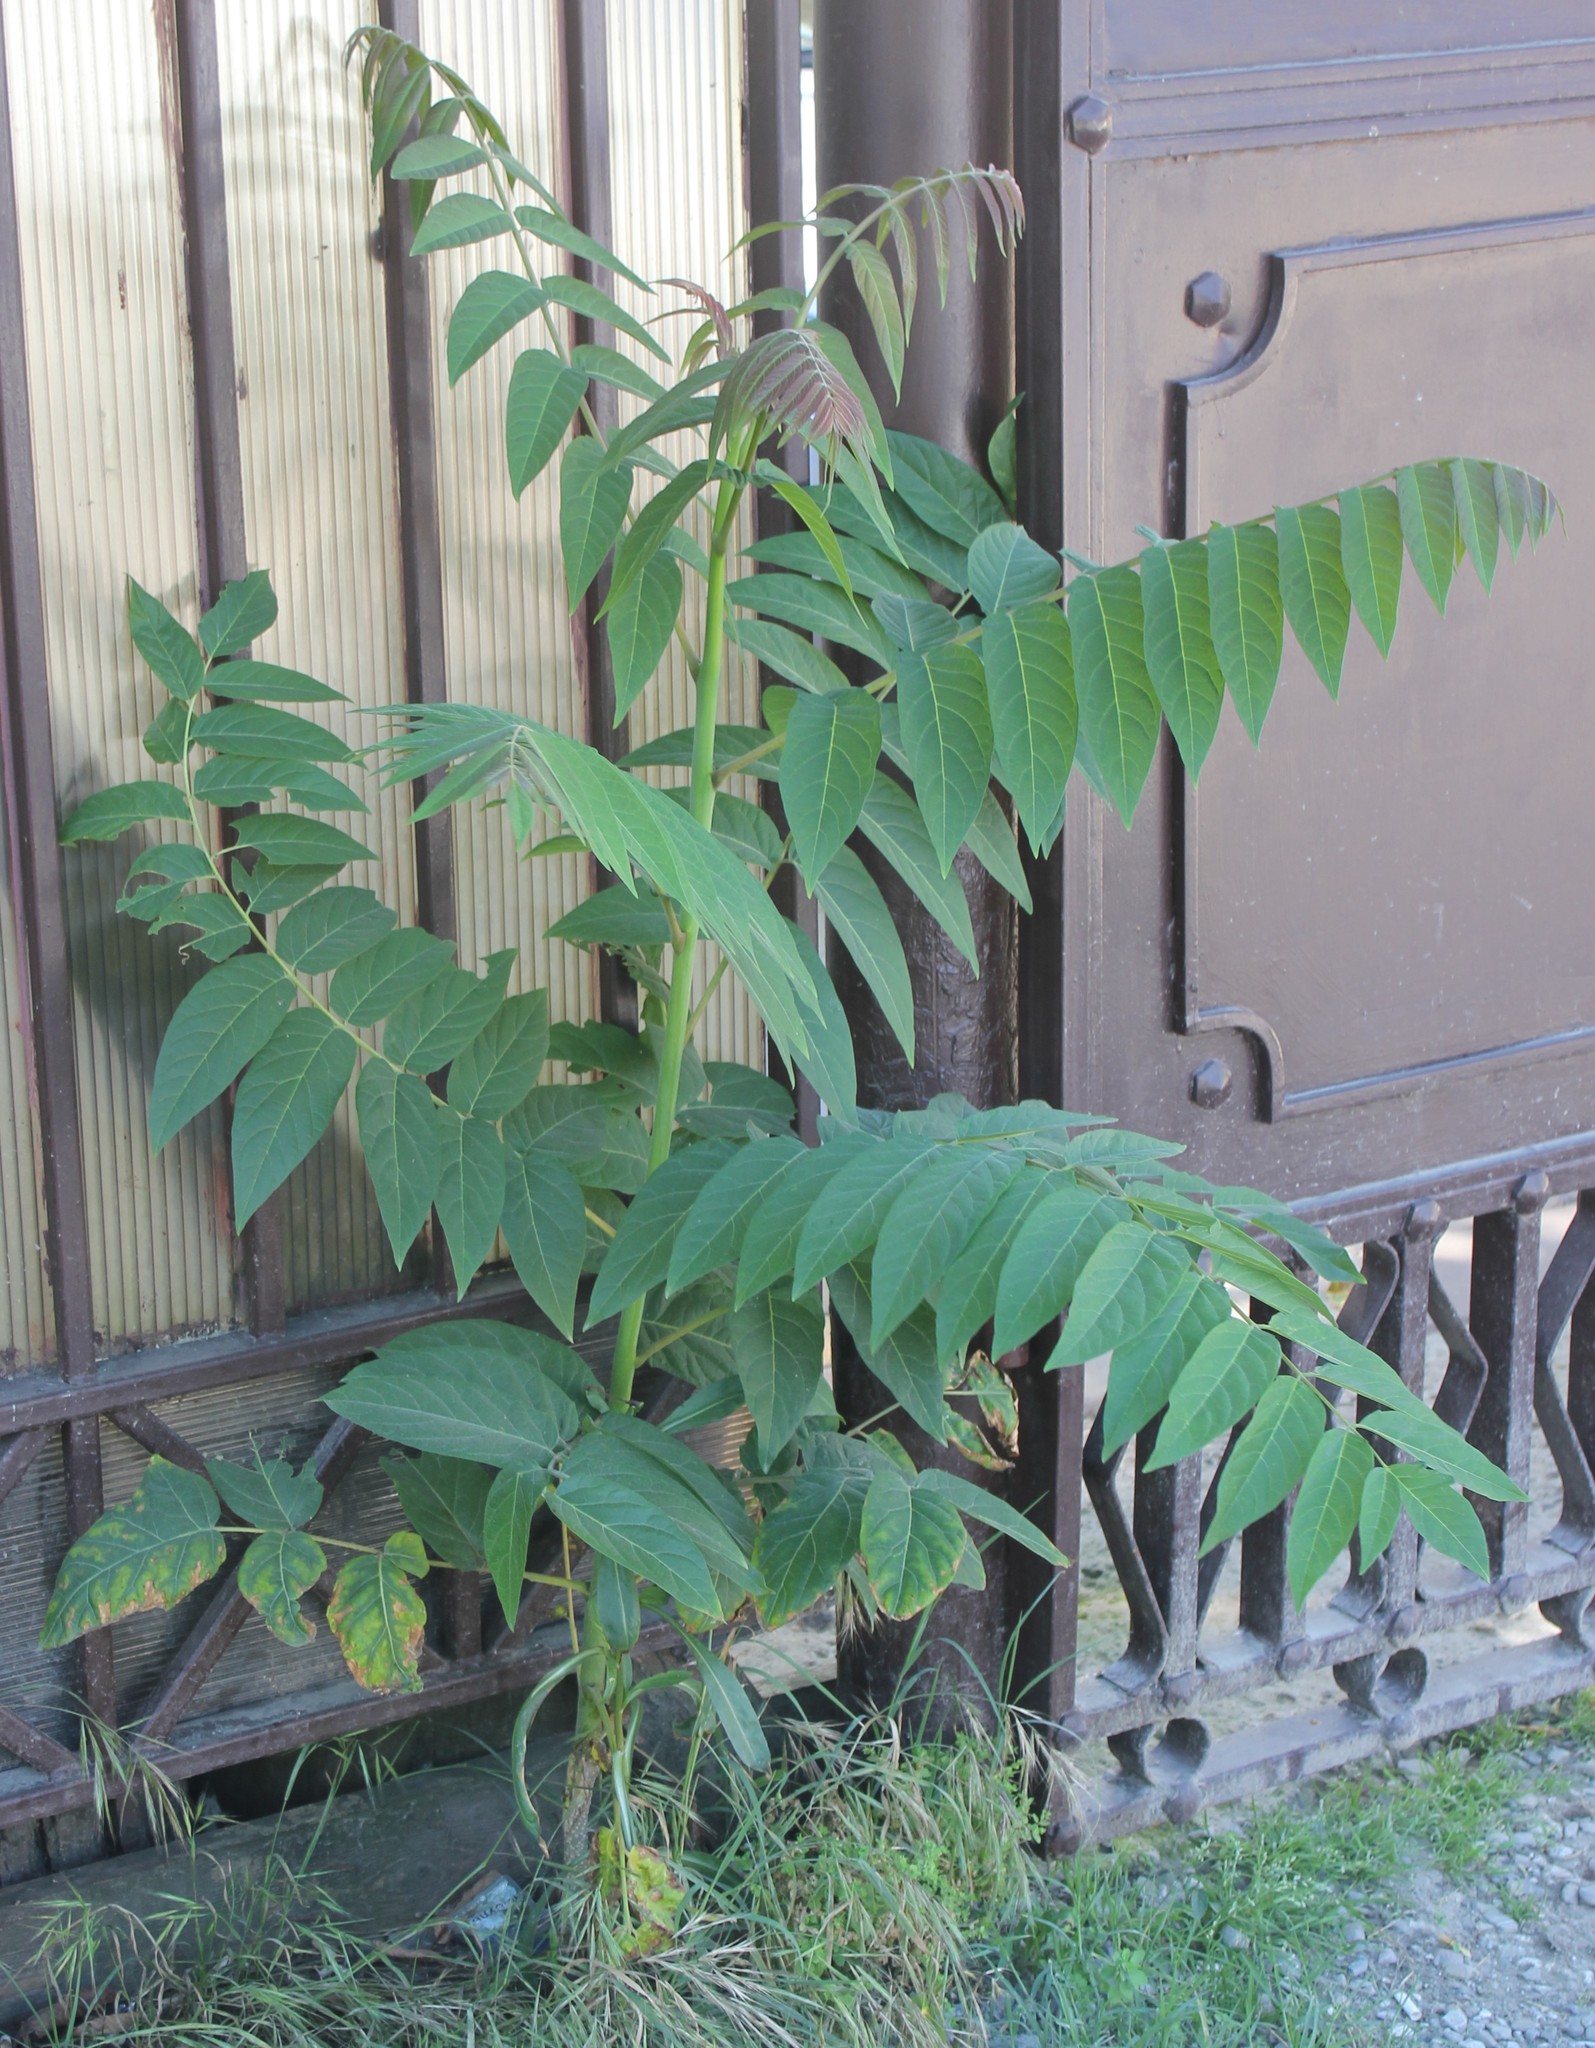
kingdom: Plantae
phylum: Tracheophyta
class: Magnoliopsida
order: Sapindales
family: Simaroubaceae
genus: Ailanthus
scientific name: Ailanthus altissima
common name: Tree-of-heaven
